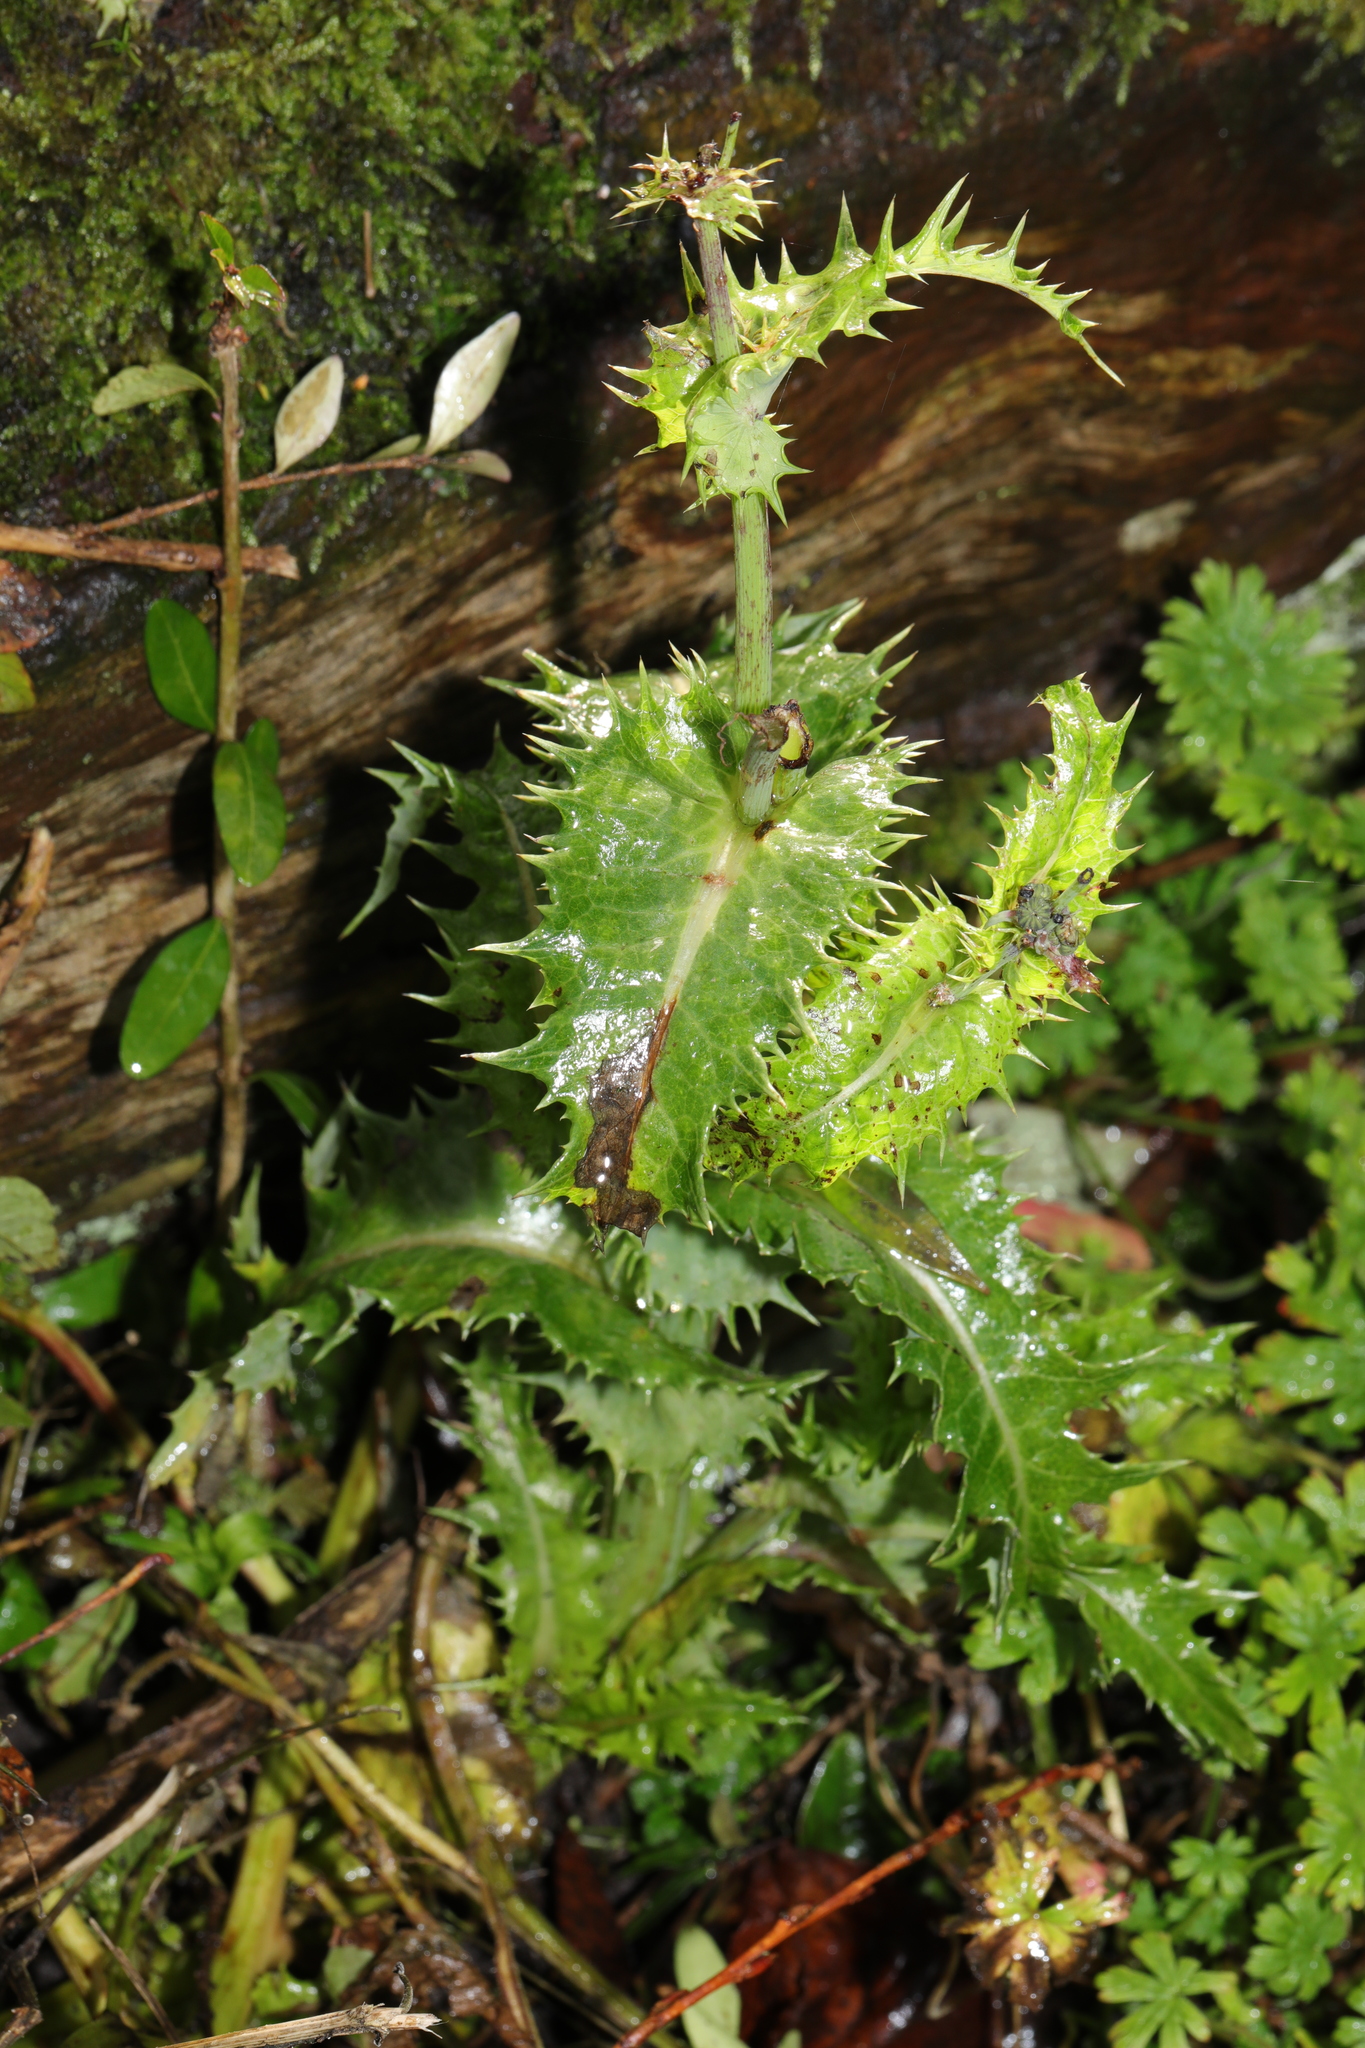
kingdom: Plantae
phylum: Tracheophyta
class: Magnoliopsida
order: Asterales
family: Asteraceae
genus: Sonchus
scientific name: Sonchus asper
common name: Prickly sow-thistle
